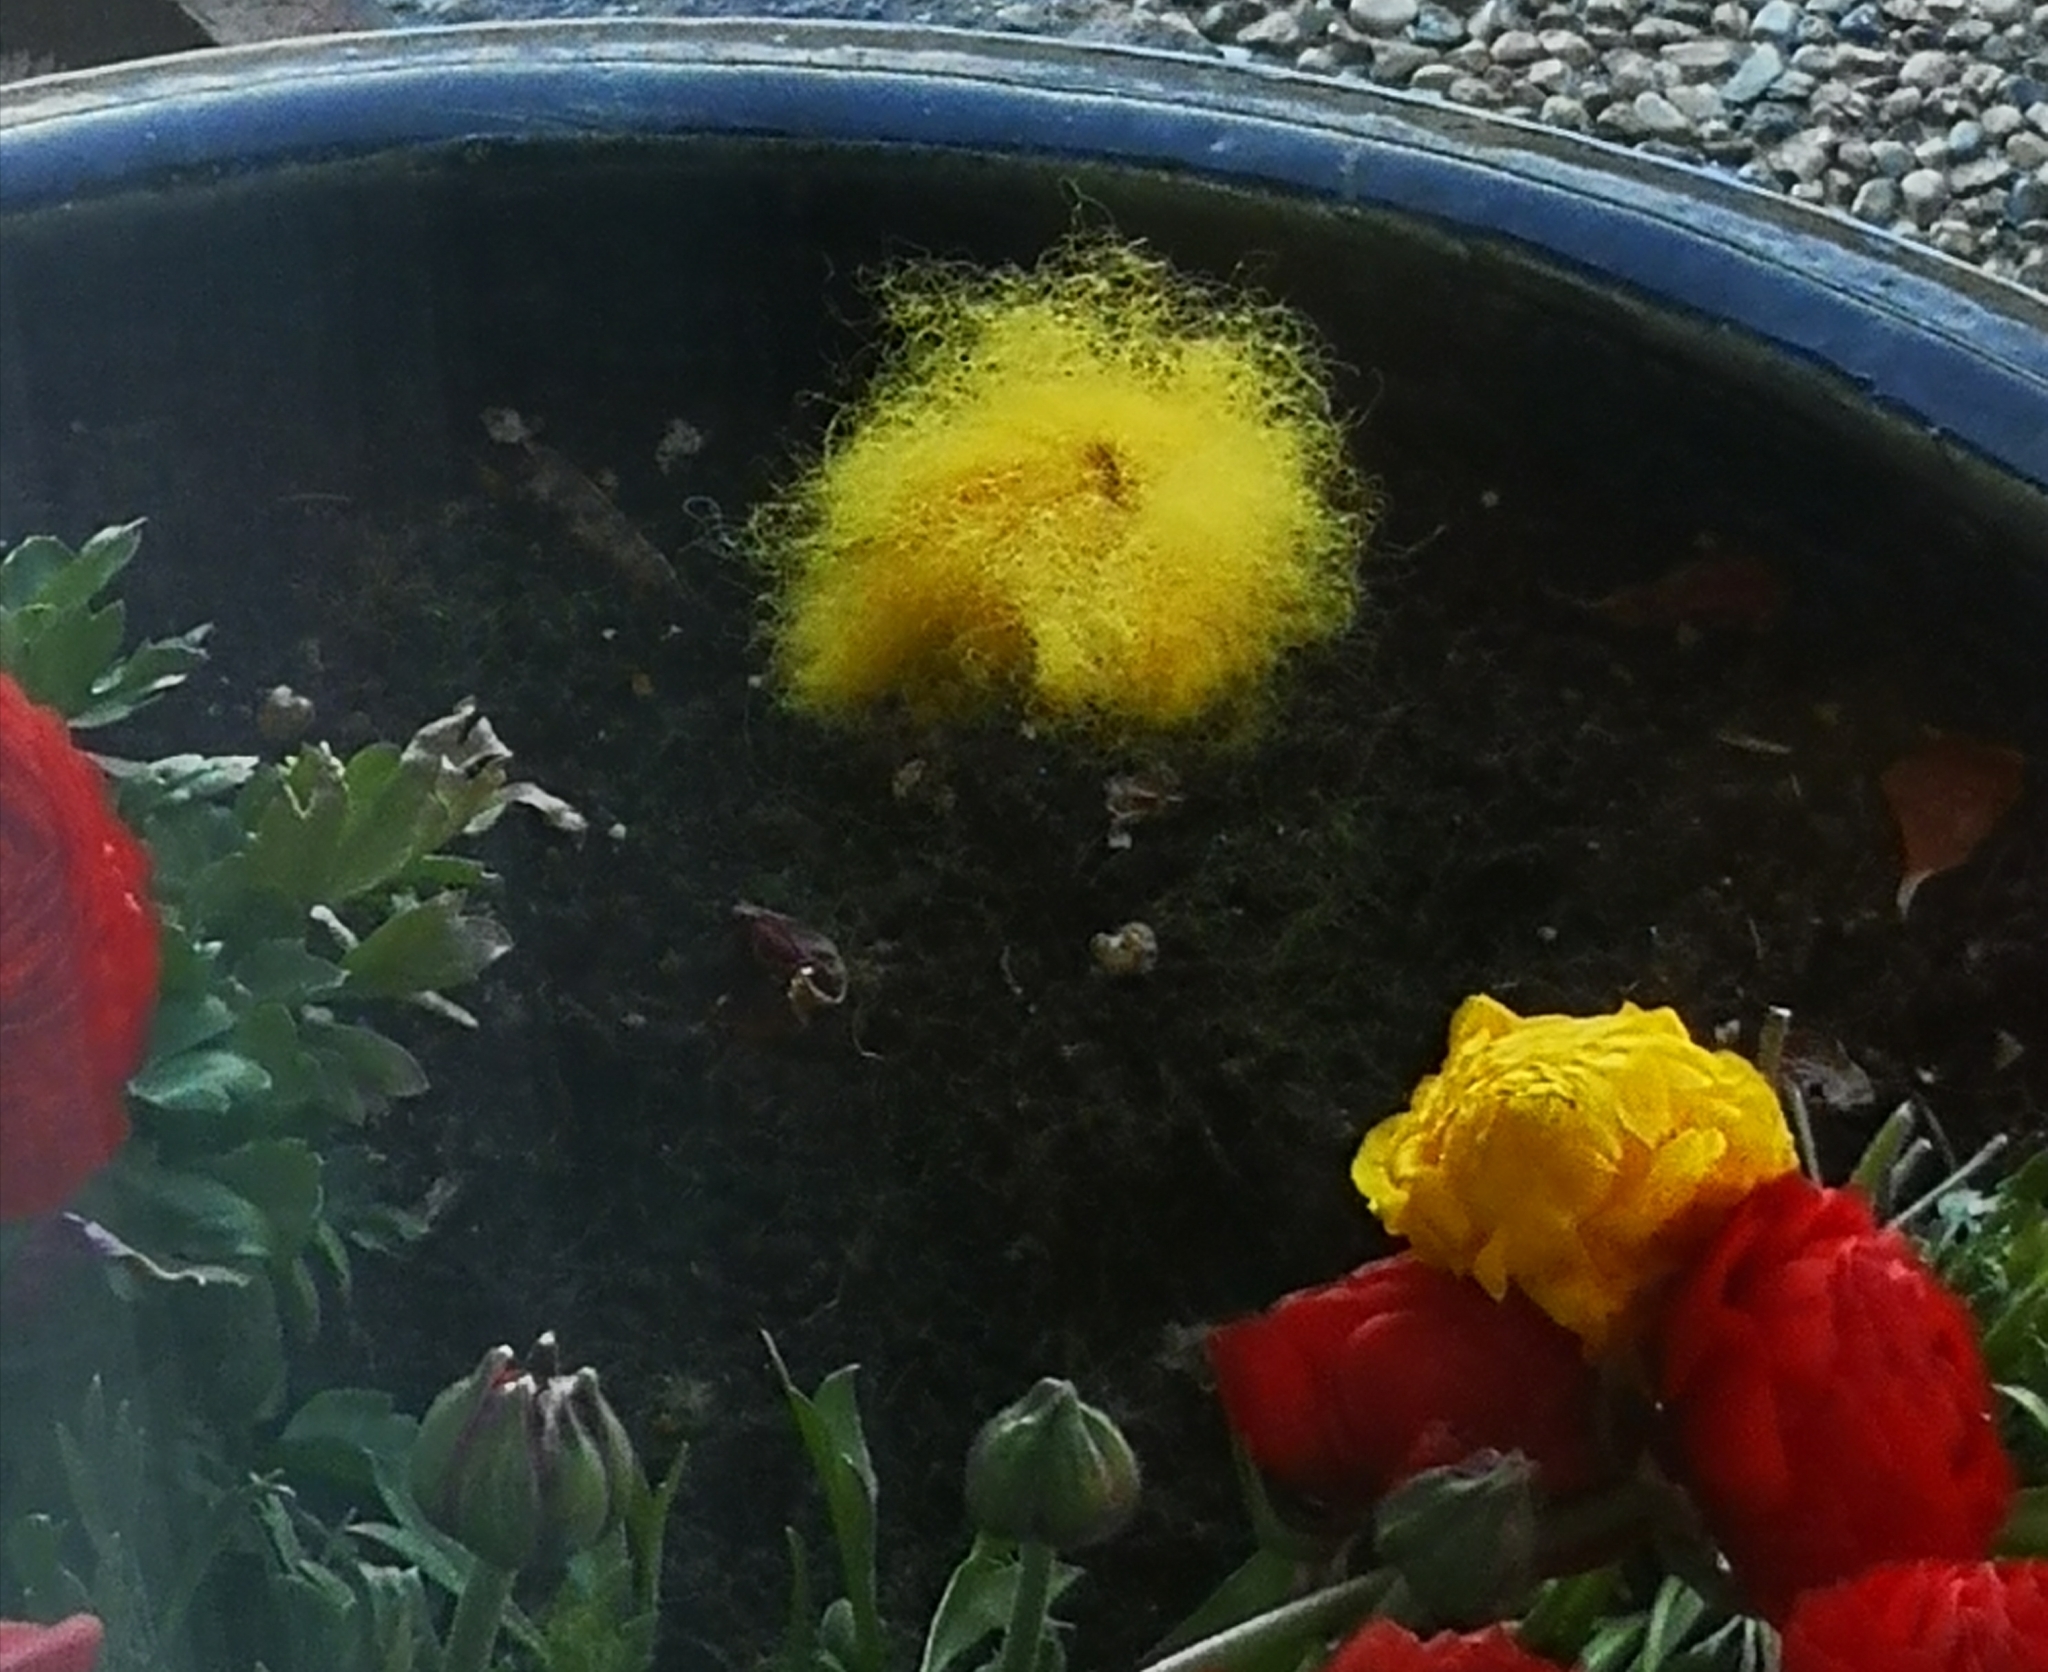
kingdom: Animalia
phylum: Chordata
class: Aves
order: Passeriformes
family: Paridae
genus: Parus
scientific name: Parus major
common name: Great tit
